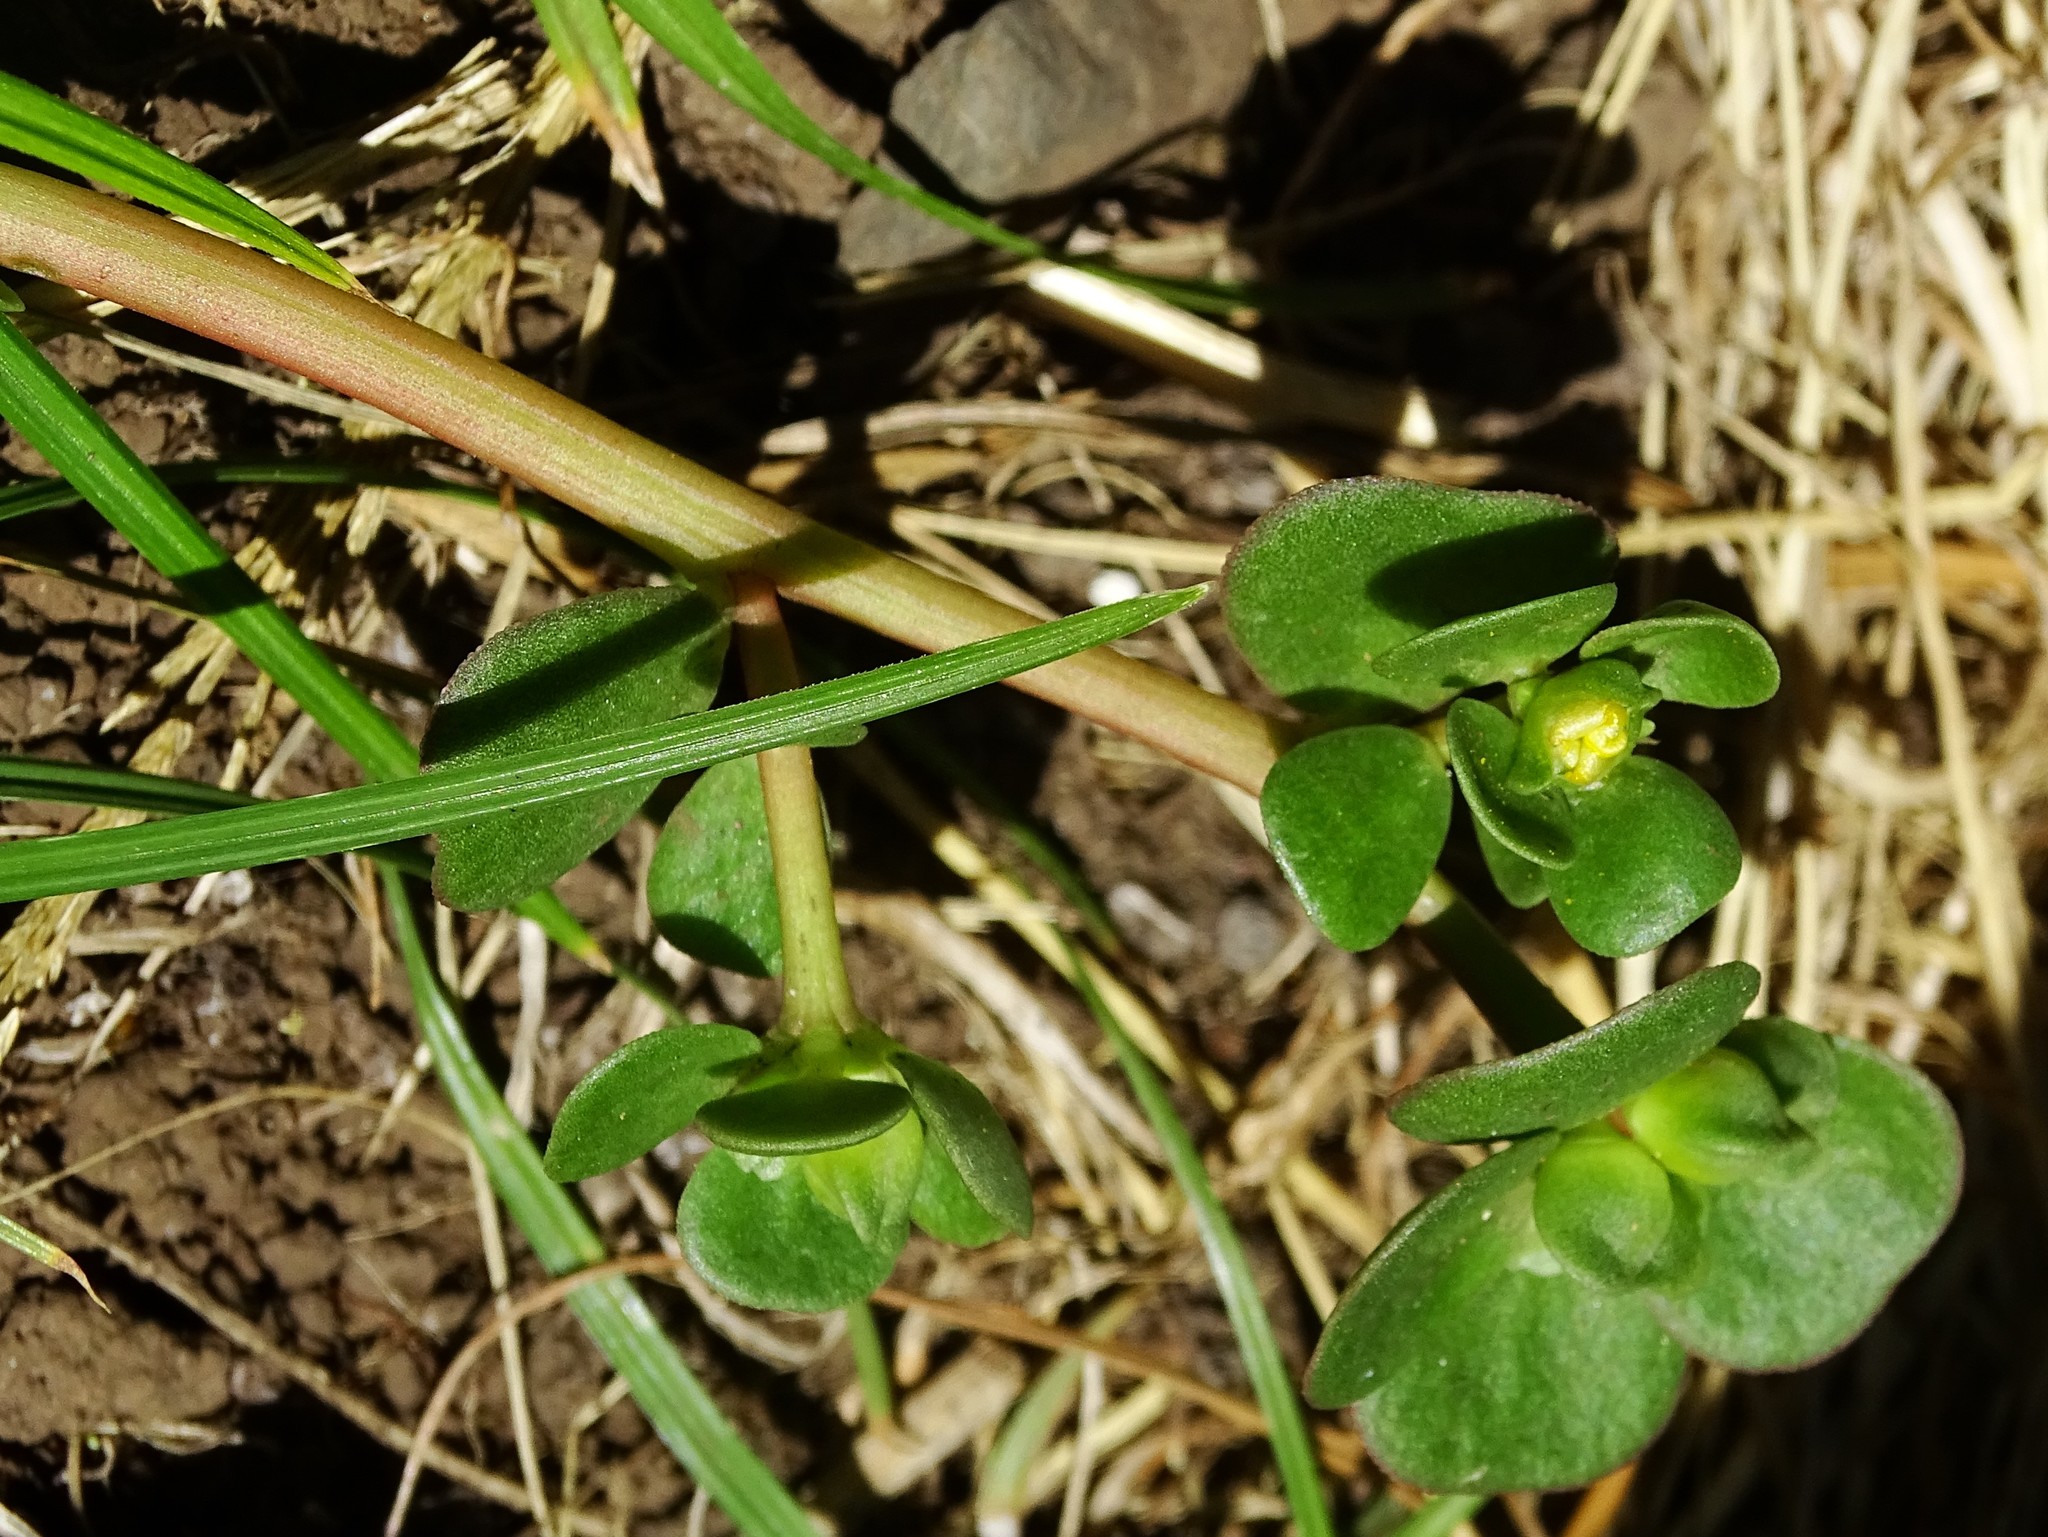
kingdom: Plantae
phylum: Tracheophyta
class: Magnoliopsida
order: Caryophyllales
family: Portulacaceae
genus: Portulaca
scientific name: Portulaca oleracea
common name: Common purslane
